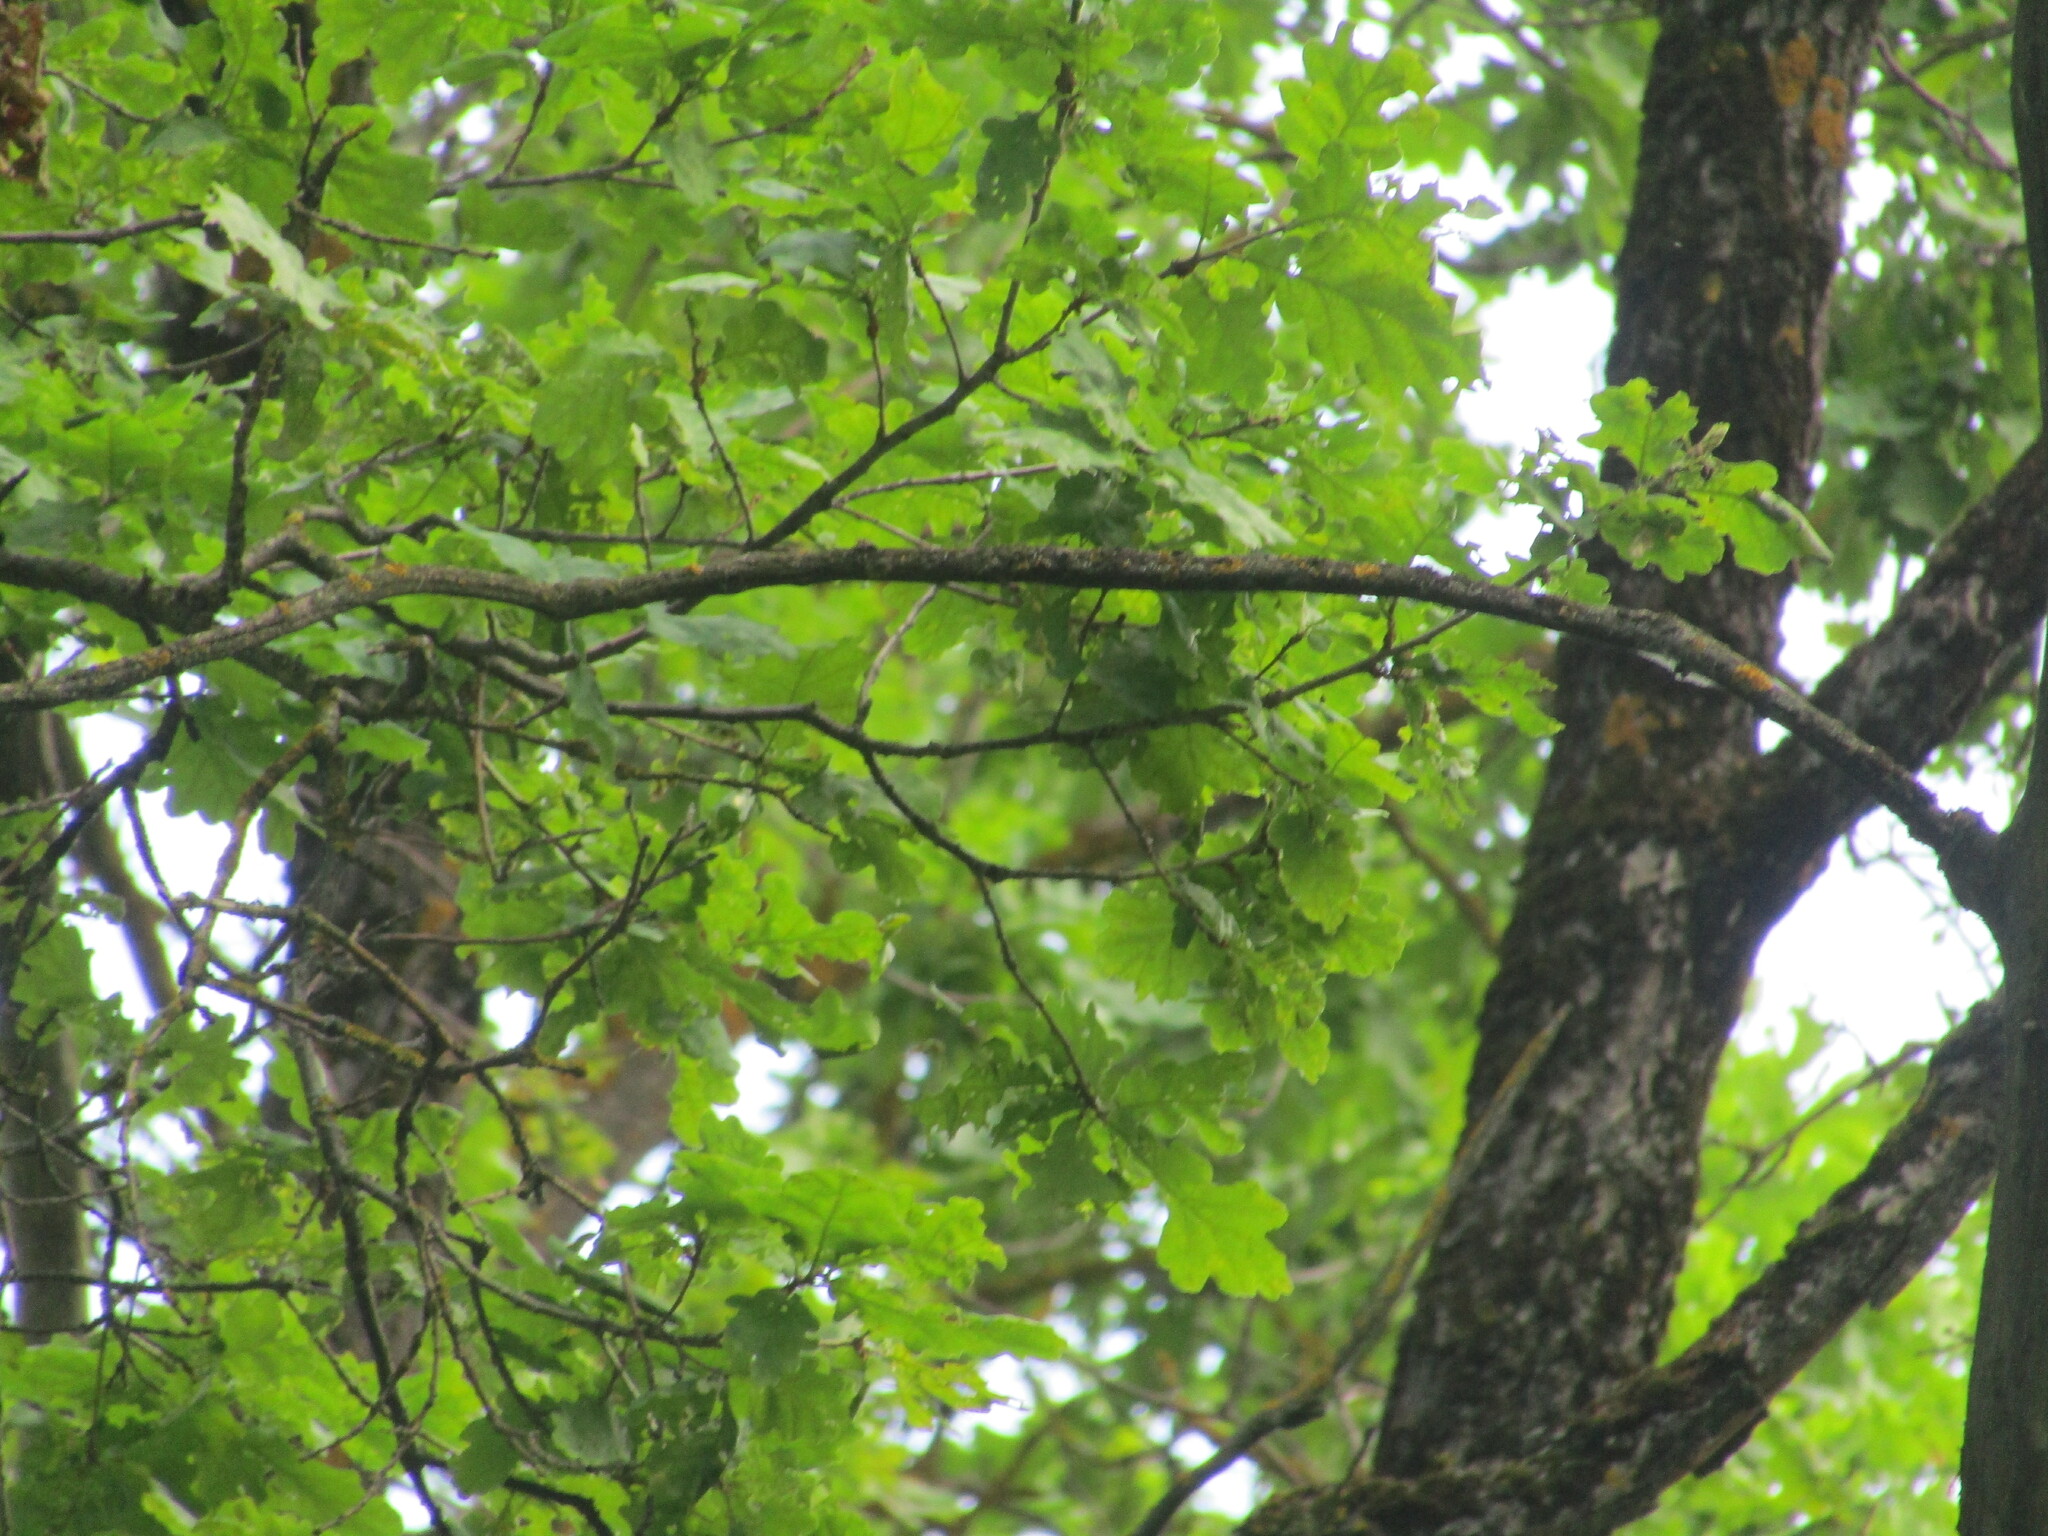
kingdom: Plantae
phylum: Tracheophyta
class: Magnoliopsida
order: Fagales
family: Fagaceae
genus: Quercus
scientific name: Quercus robur
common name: Pedunculate oak
